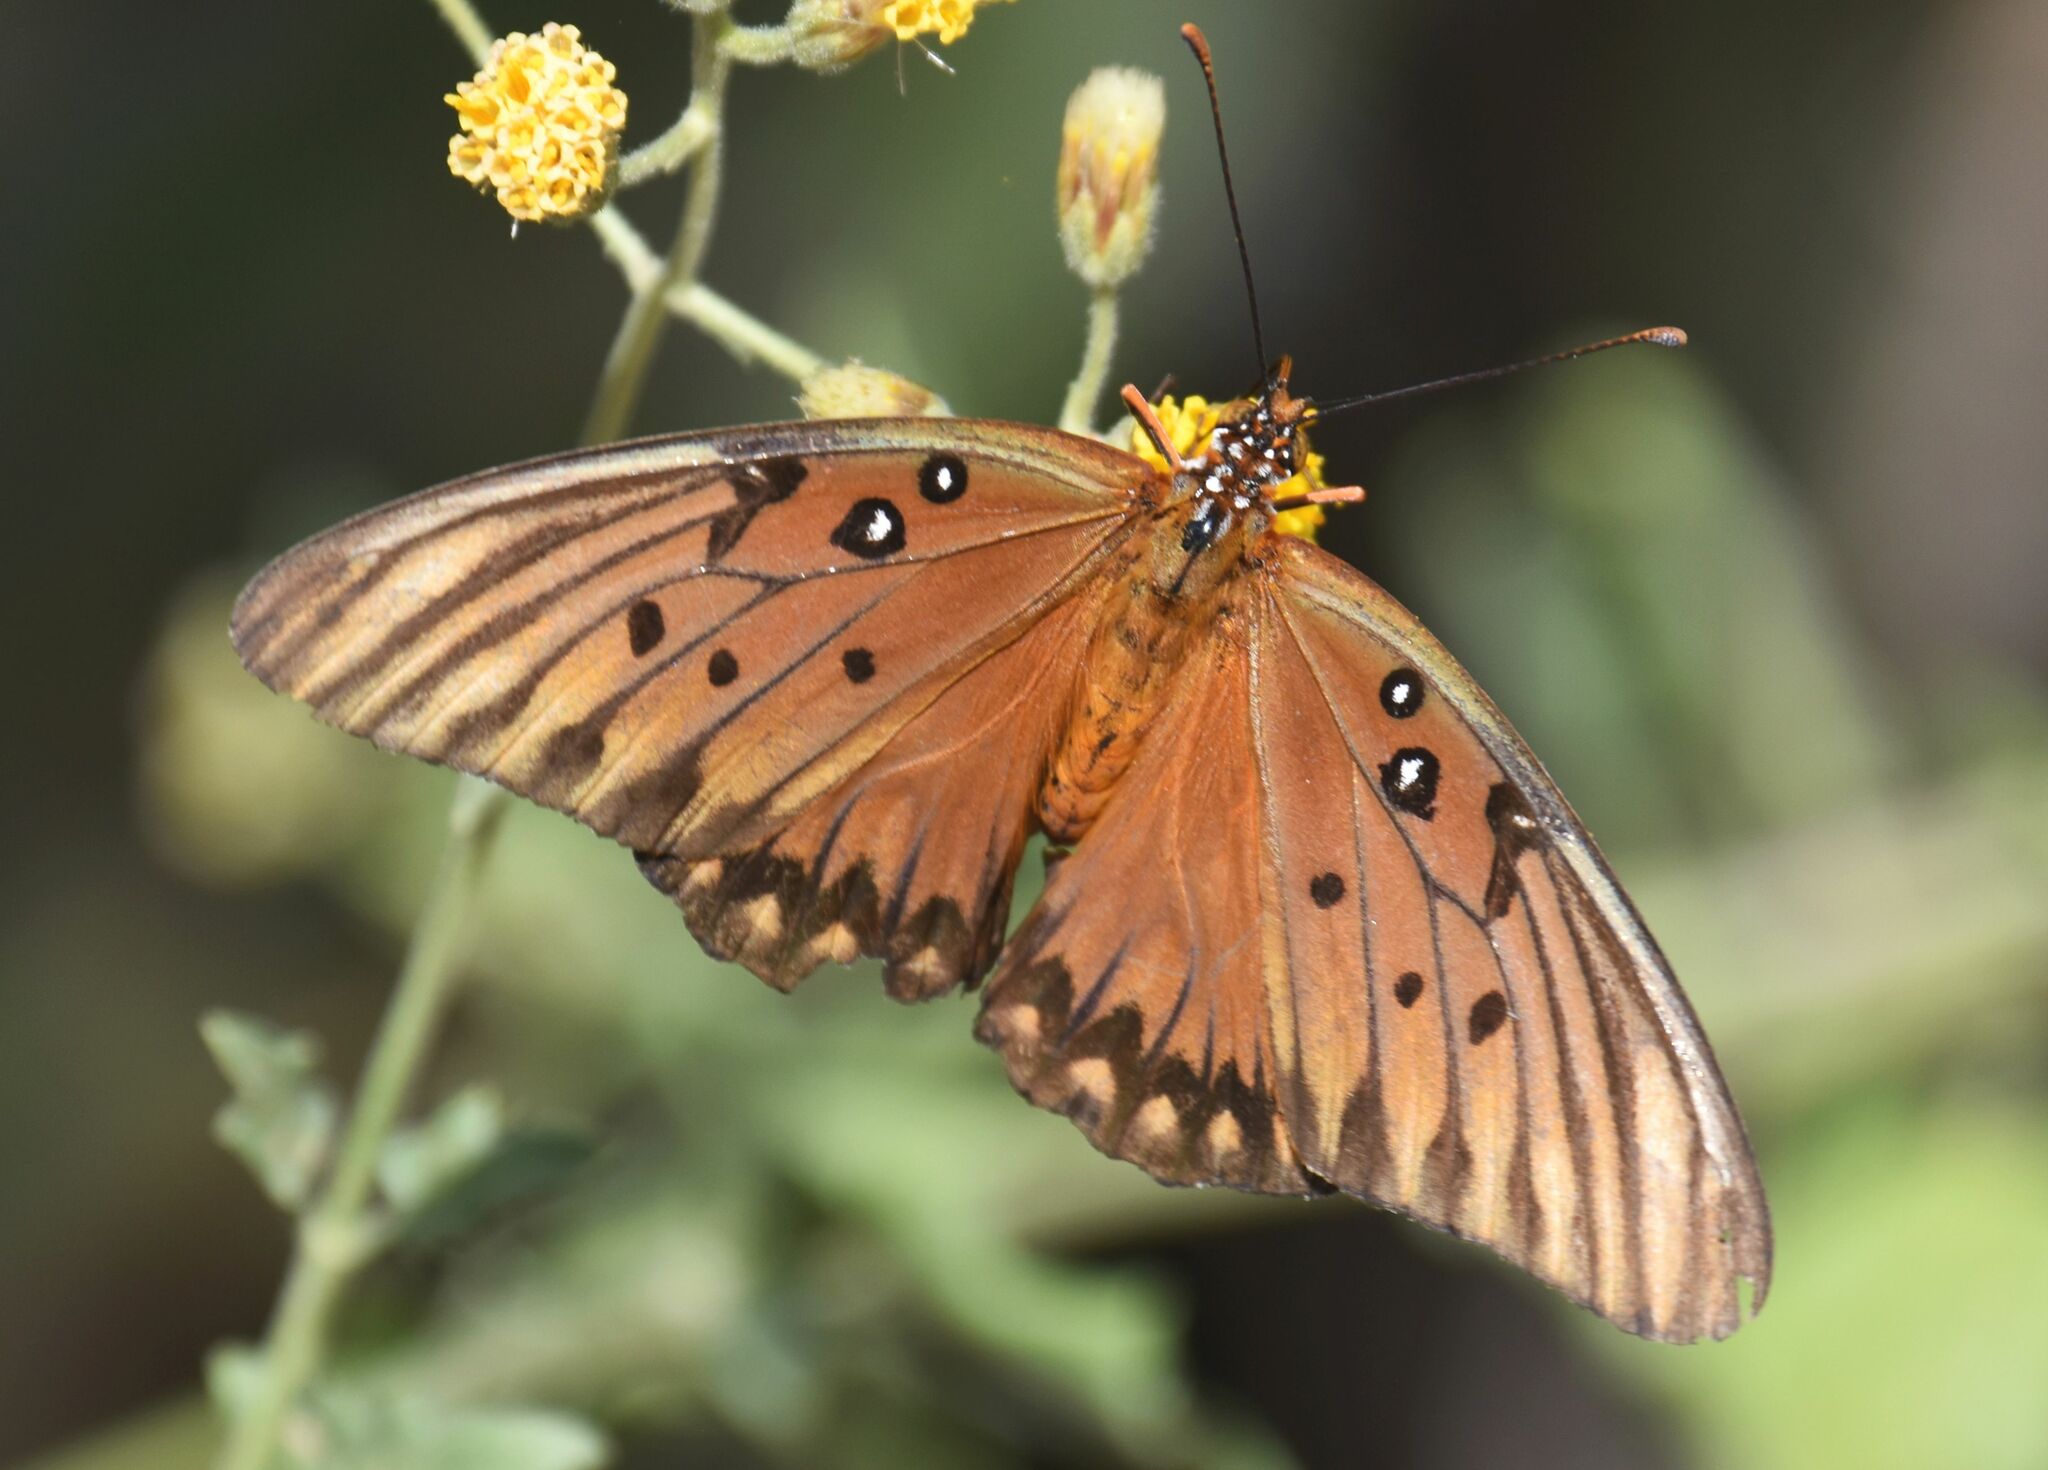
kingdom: Animalia
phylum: Arthropoda
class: Insecta
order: Lepidoptera
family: Nymphalidae
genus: Dione
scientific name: Dione vanillae
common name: Gulf fritillary
